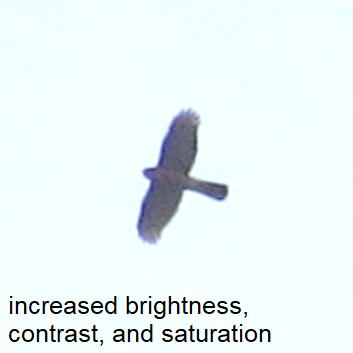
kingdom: Animalia
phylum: Chordata
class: Aves
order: Accipitriformes
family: Accipitridae
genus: Accipiter
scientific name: Accipiter cooperii
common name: Cooper's hawk
